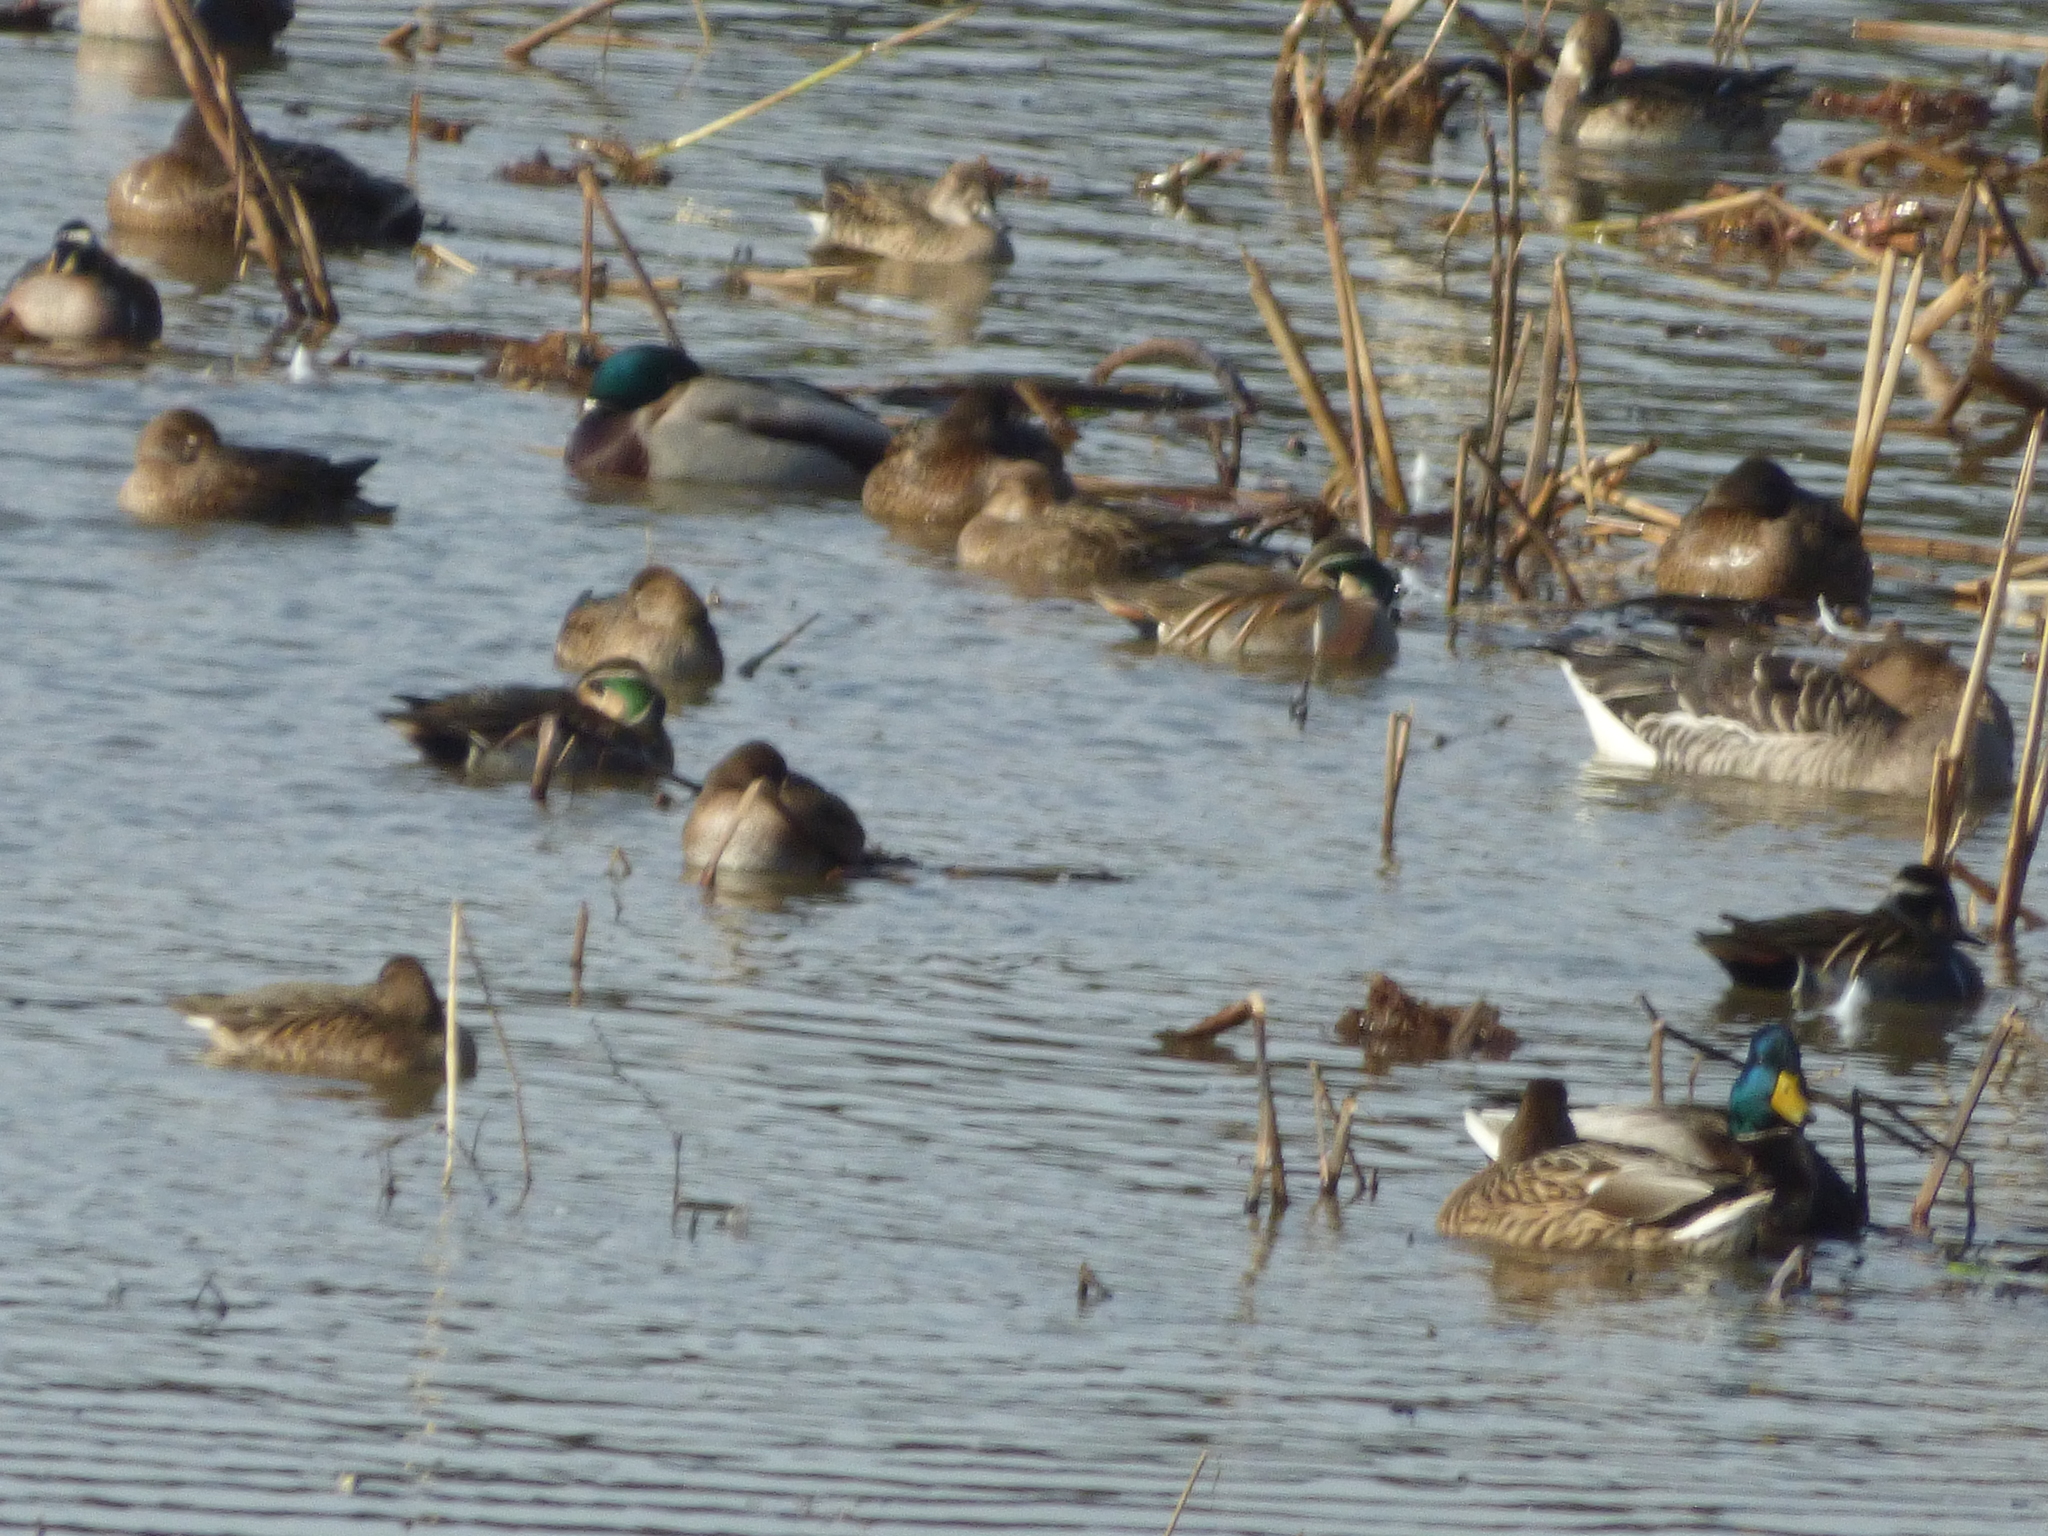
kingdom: Animalia
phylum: Chordata
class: Aves
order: Anseriformes
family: Anatidae
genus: Anas
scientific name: Anas platyrhynchos
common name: Mallard
